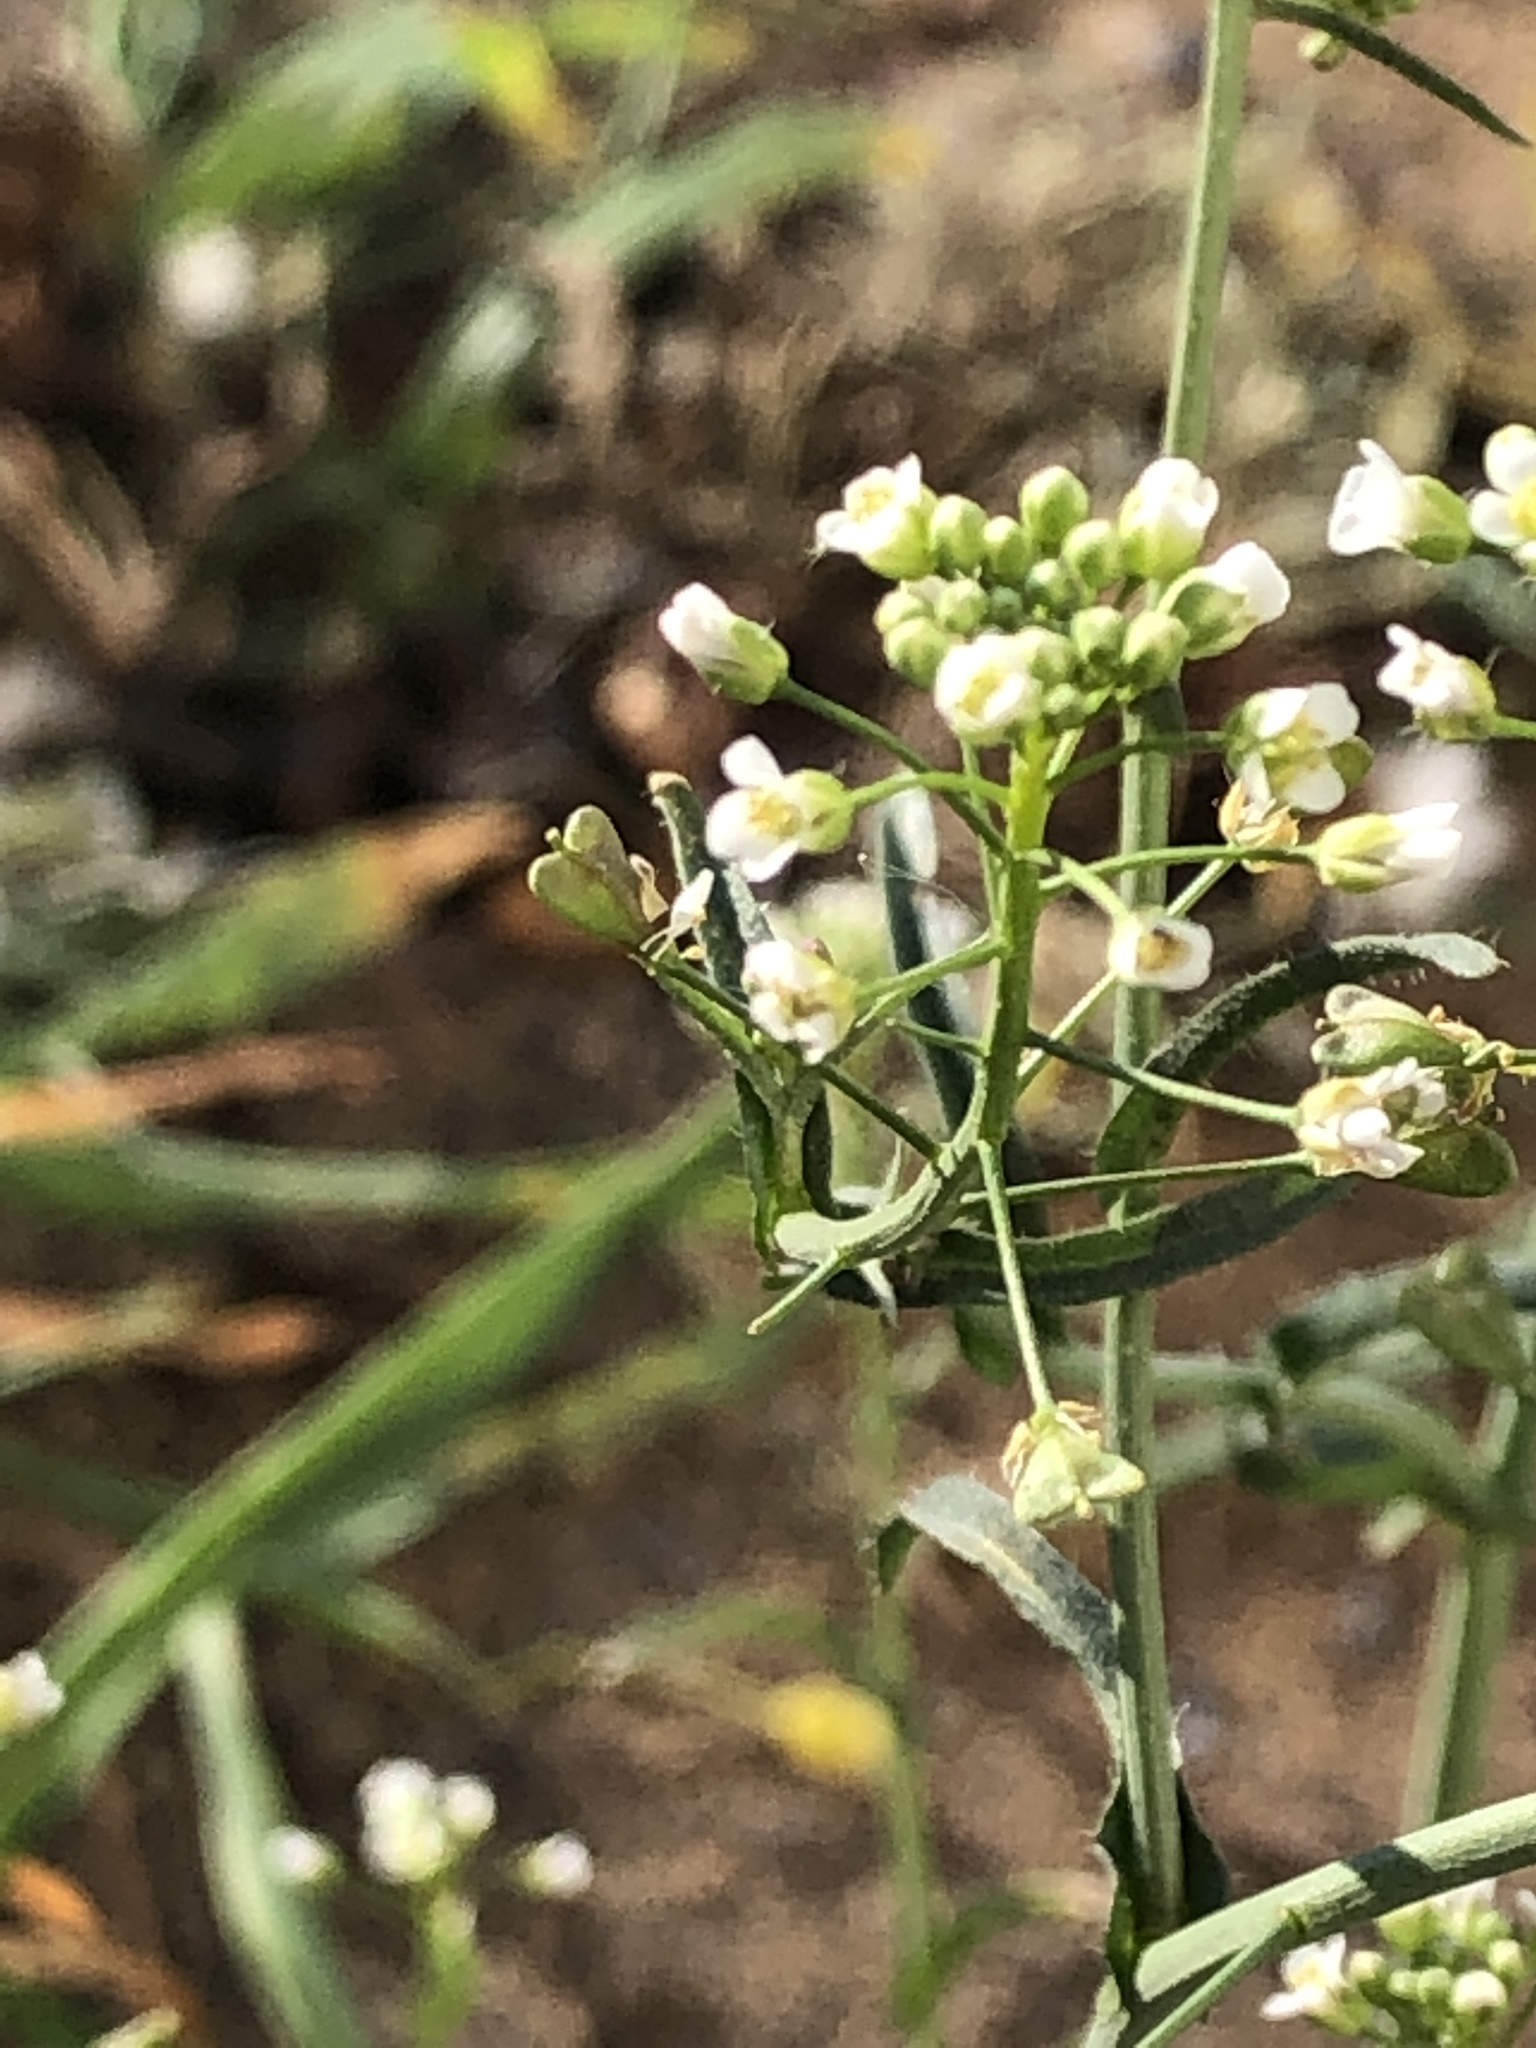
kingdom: Plantae
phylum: Tracheophyta
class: Magnoliopsida
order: Brassicales
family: Brassicaceae
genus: Capsella
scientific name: Capsella bursa-pastoris
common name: Shepherd's purse
